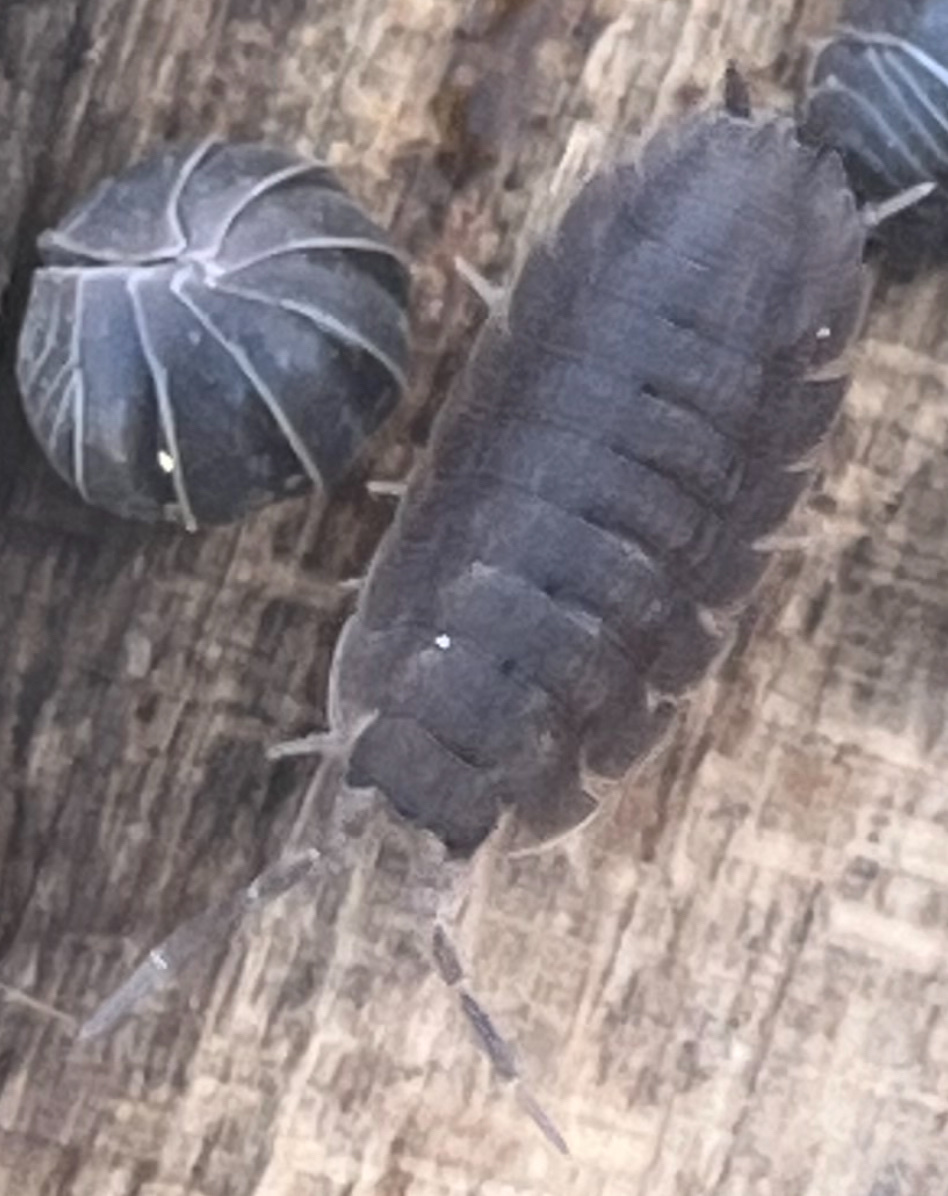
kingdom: Animalia
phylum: Arthropoda
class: Malacostraca
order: Isopoda
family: Porcellionidae
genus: Porcellio
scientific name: Porcellio scaber
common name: Common rough woodlouse
